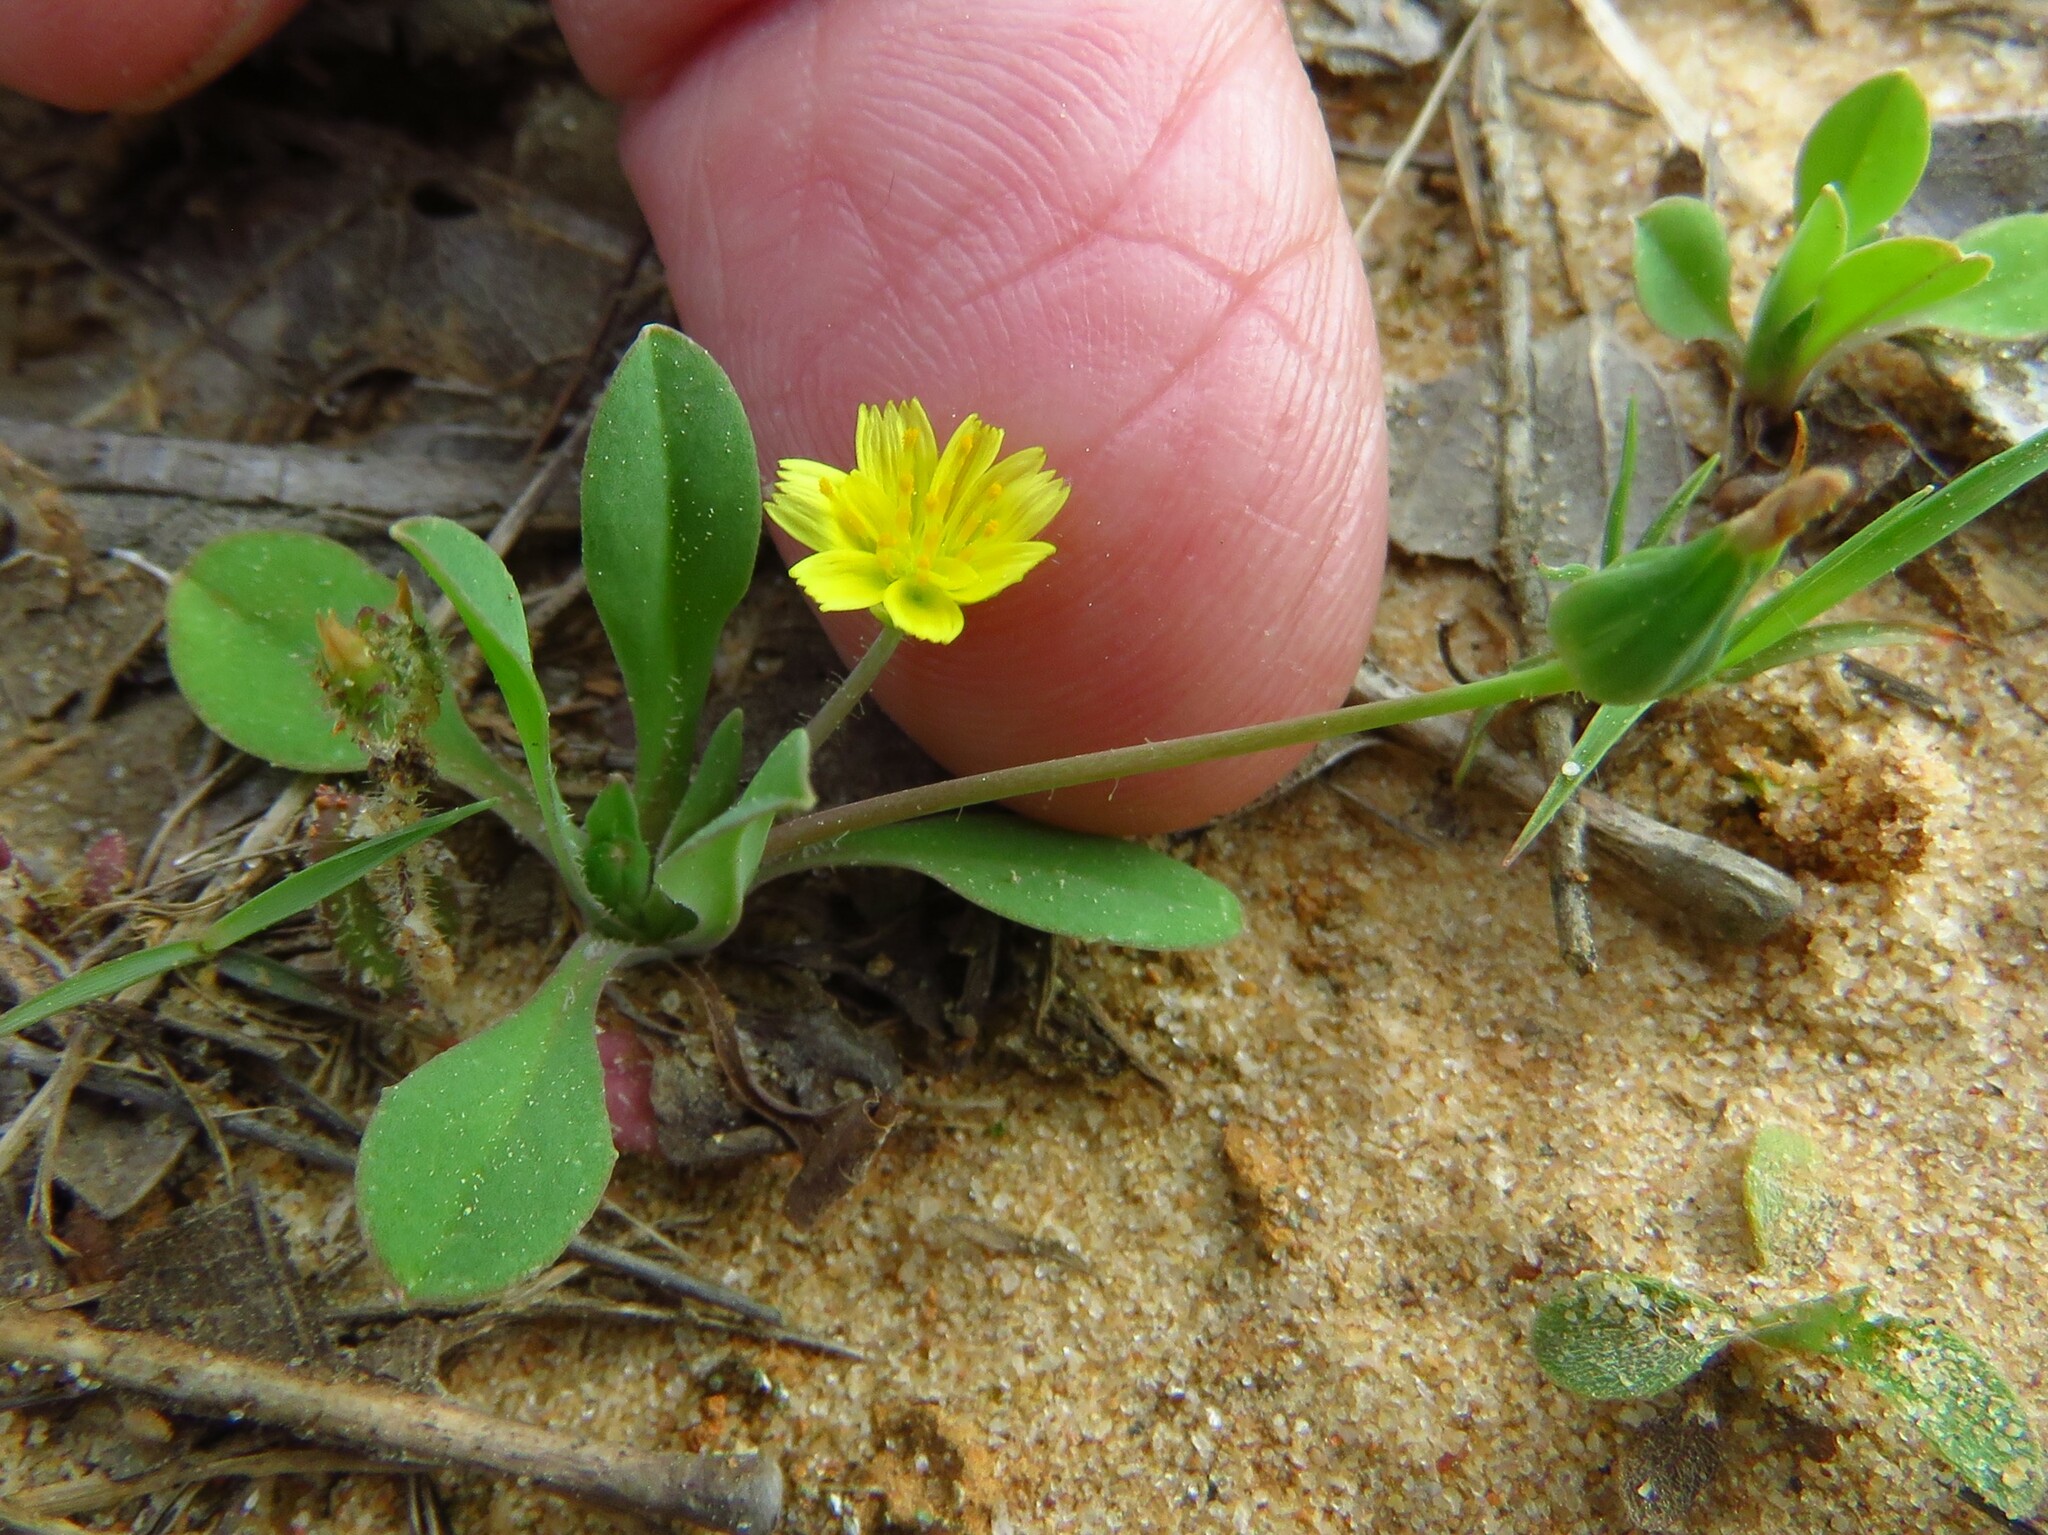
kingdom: Plantae
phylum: Tracheophyta
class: Magnoliopsida
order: Asterales
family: Asteraceae
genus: Krigia
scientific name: Krigia occidentalis
